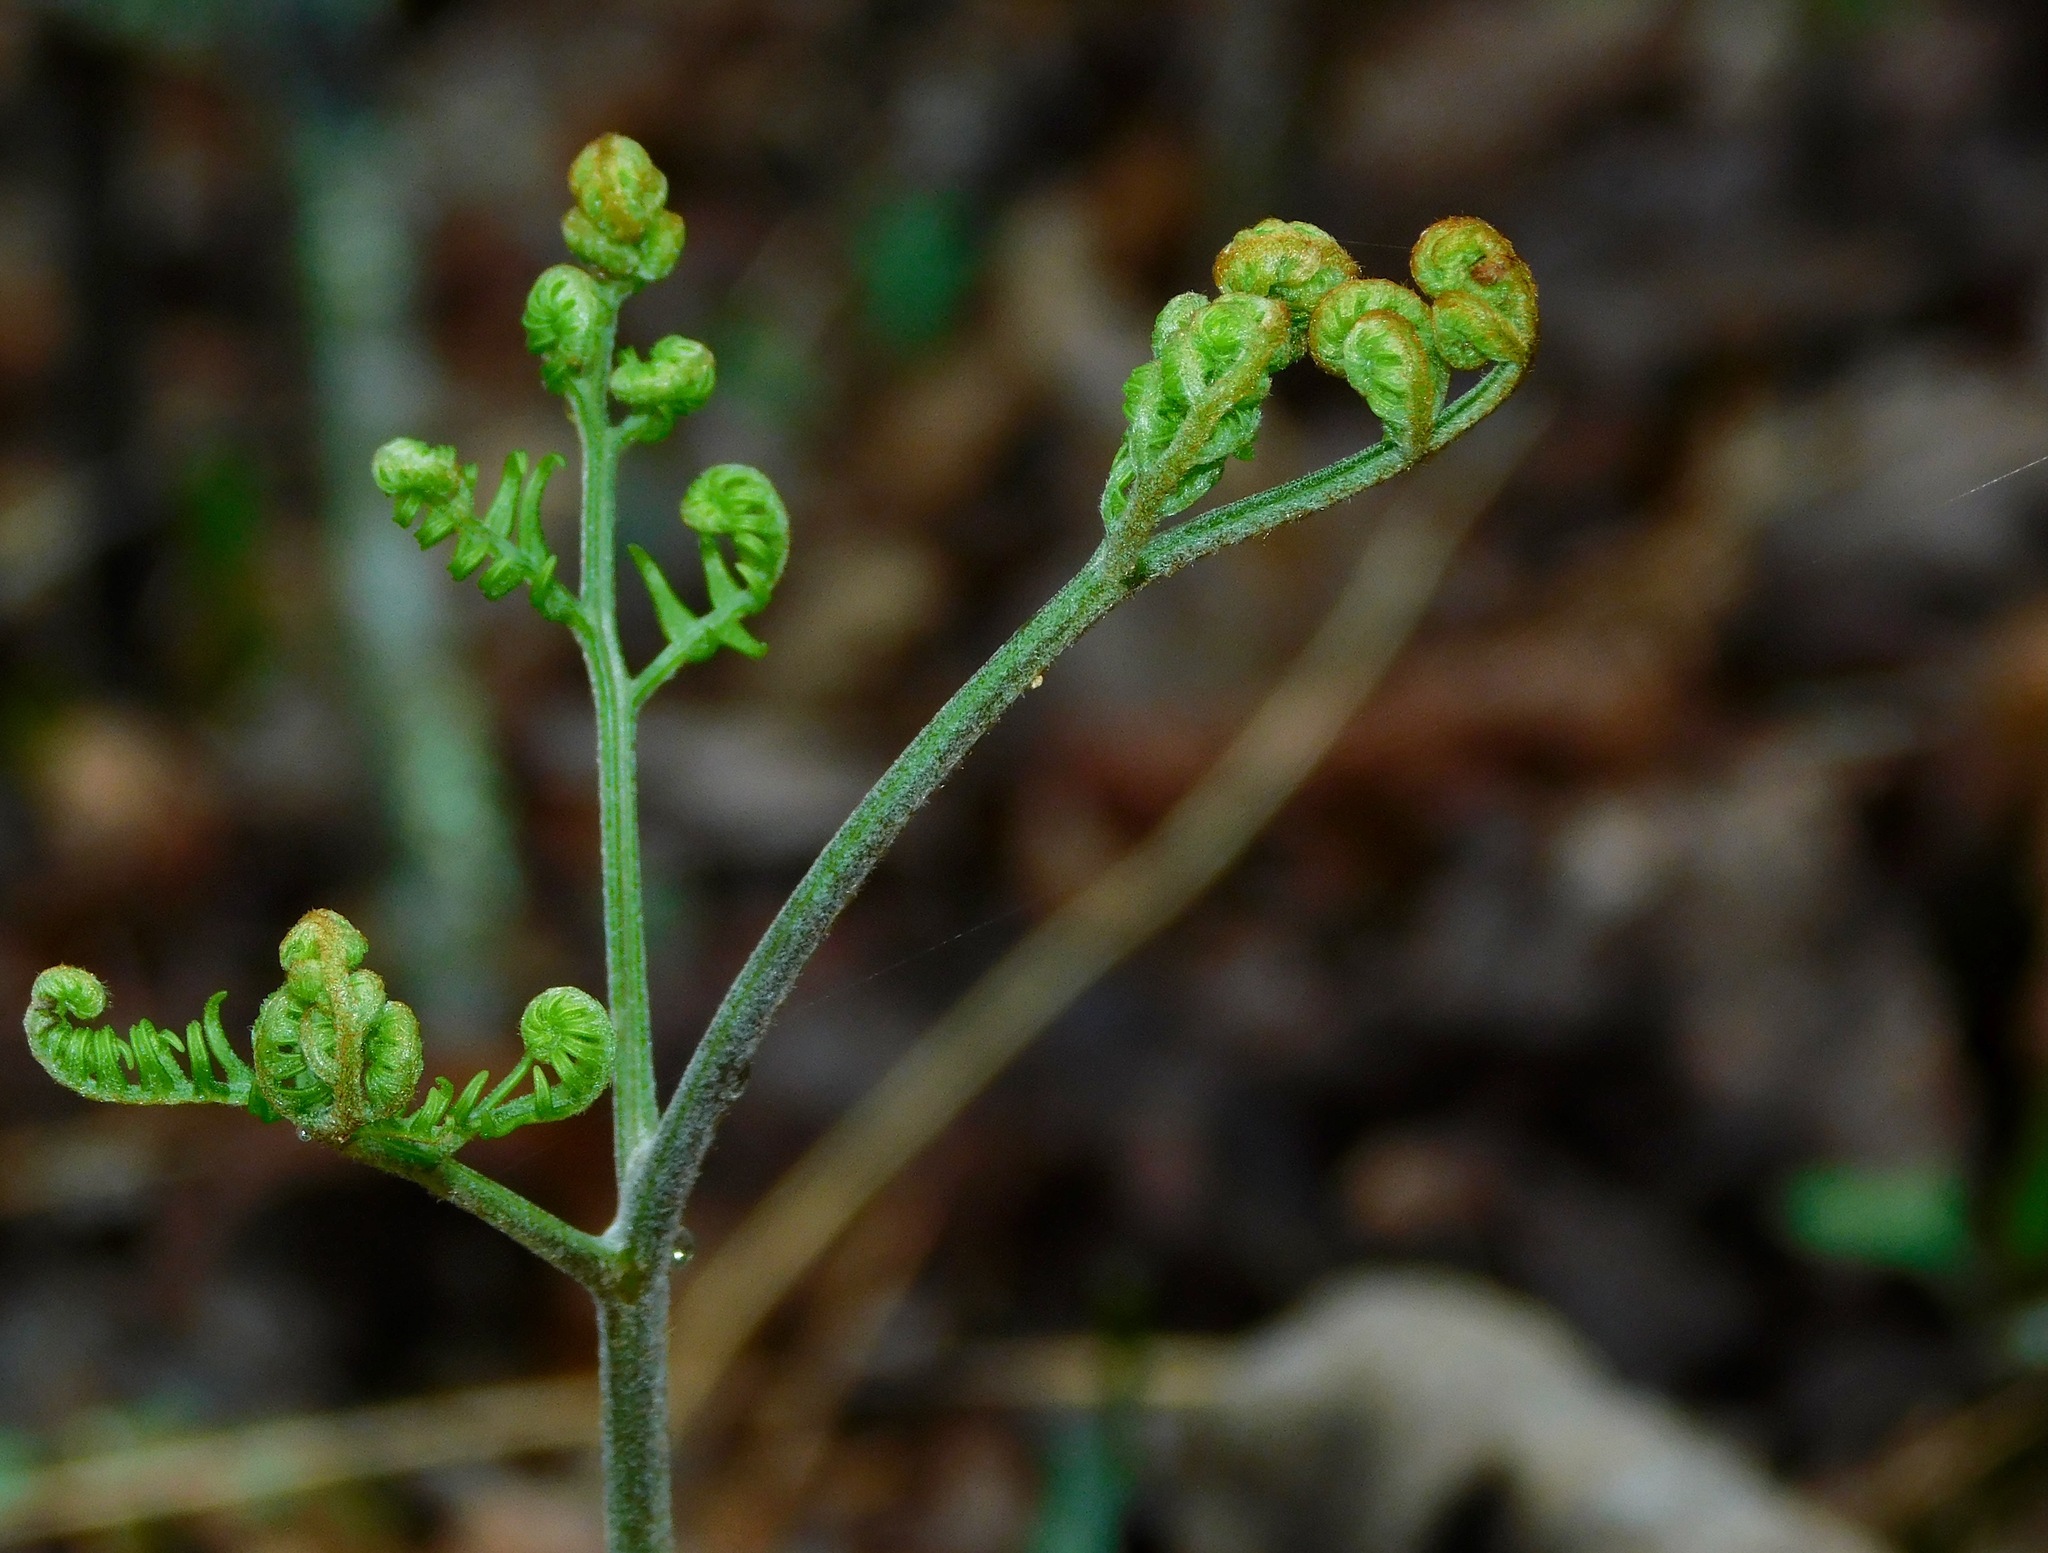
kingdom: Plantae
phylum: Tracheophyta
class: Polypodiopsida
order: Polypodiales
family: Dennstaedtiaceae
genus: Pteridium
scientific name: Pteridium aquilinum
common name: Bracken
